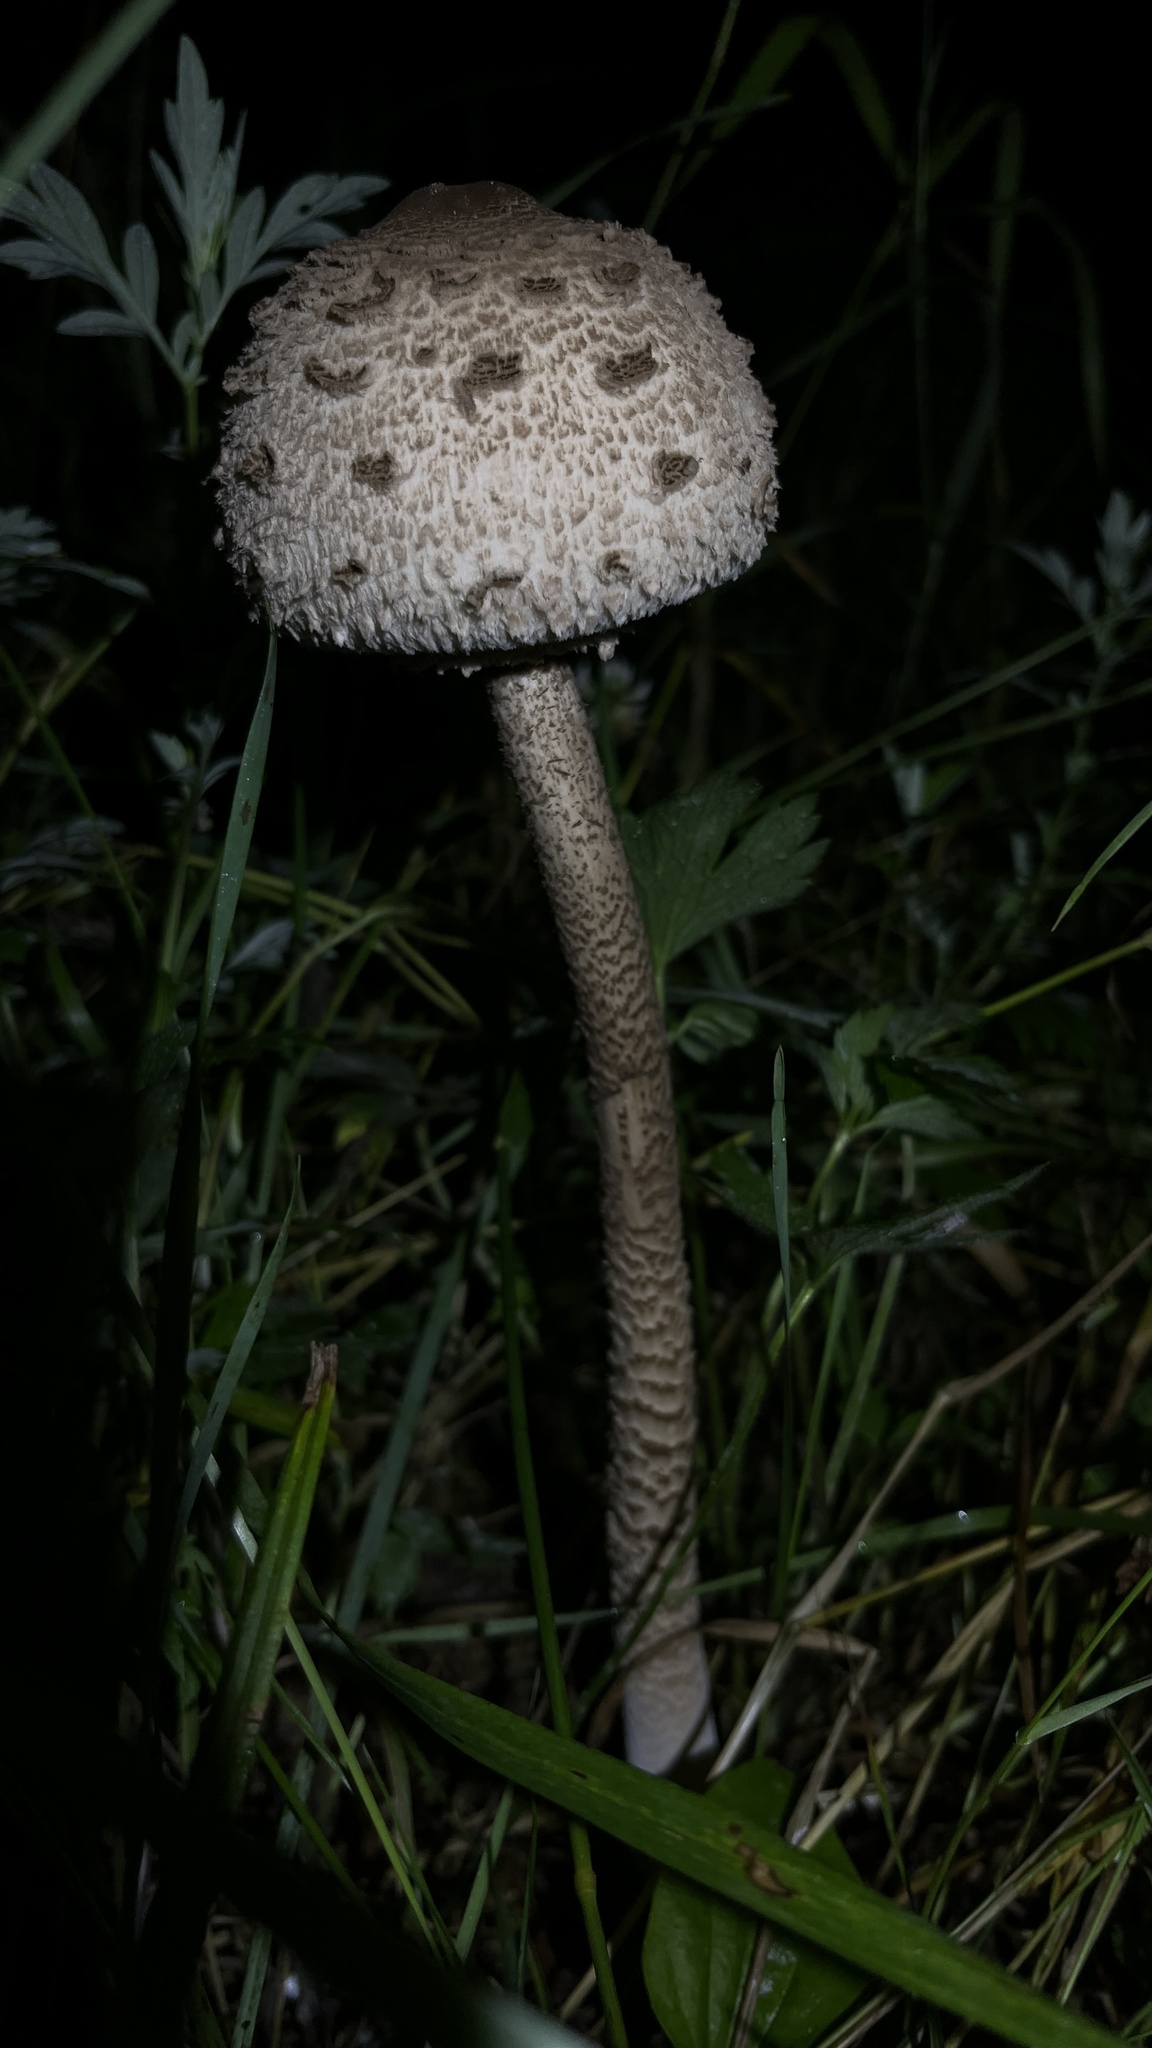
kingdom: Fungi
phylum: Basidiomycota
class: Agaricomycetes
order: Agaricales
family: Agaricaceae
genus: Macrolepiota
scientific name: Macrolepiota procera
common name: Parasol
